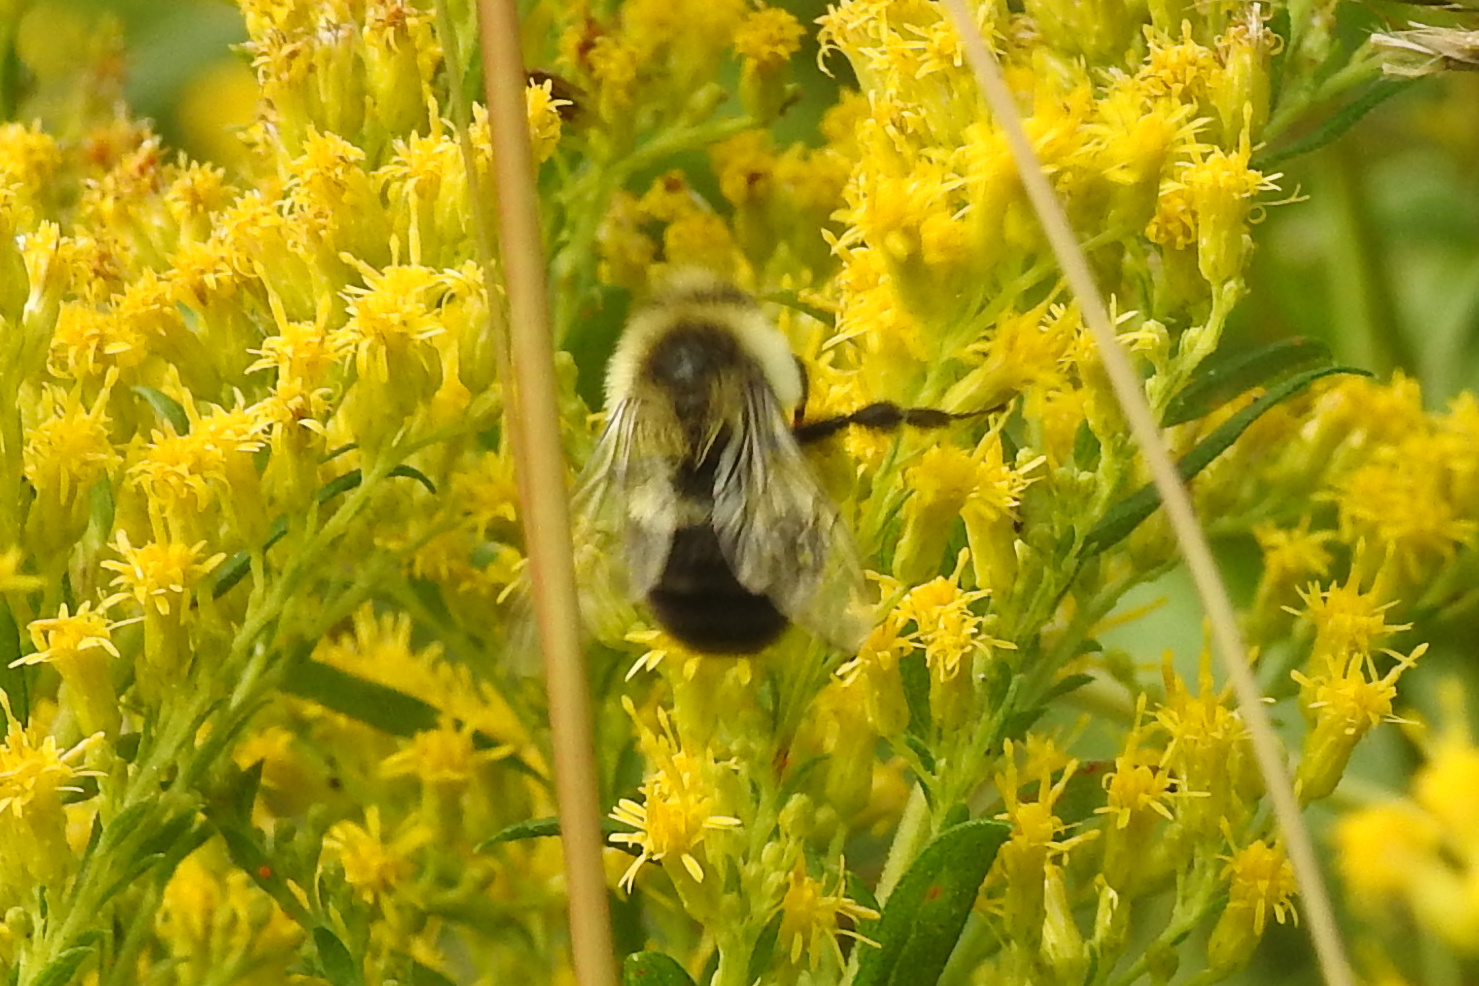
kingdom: Animalia
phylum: Arthropoda
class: Insecta
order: Hymenoptera
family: Apidae
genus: Bombus
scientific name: Bombus impatiens
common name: Common eastern bumble bee
